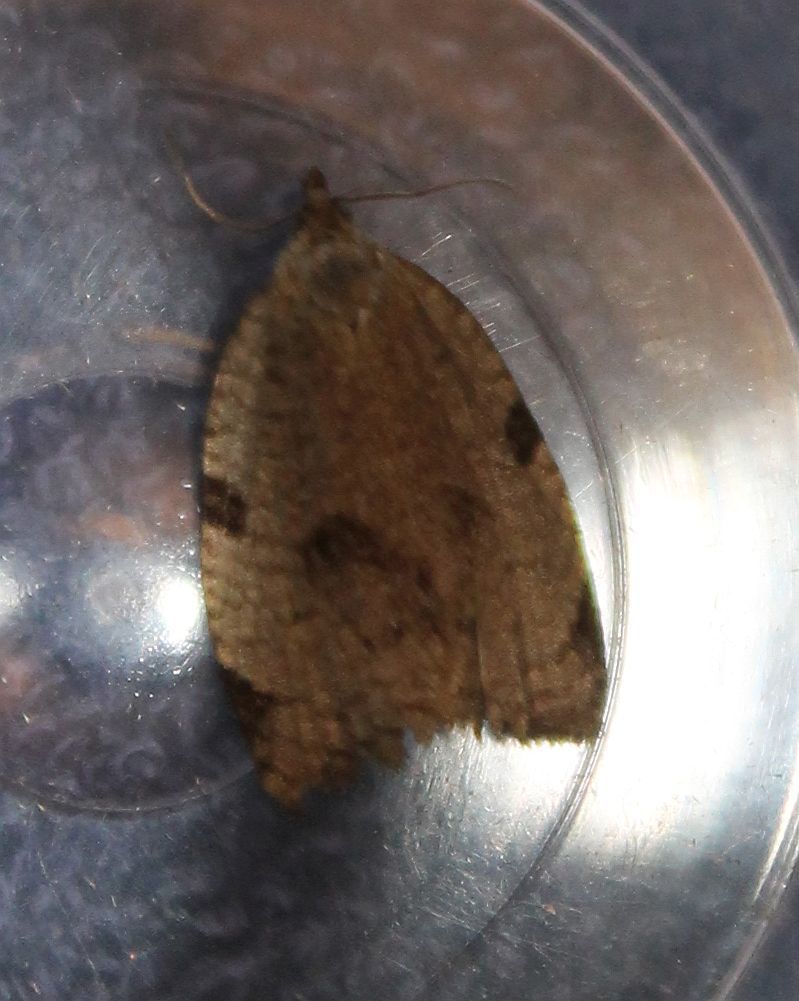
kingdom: Animalia
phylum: Arthropoda
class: Insecta
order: Lepidoptera
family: Tortricidae
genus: Lozotaenia
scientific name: Lozotaenia forsterana
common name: Large ivy twist
